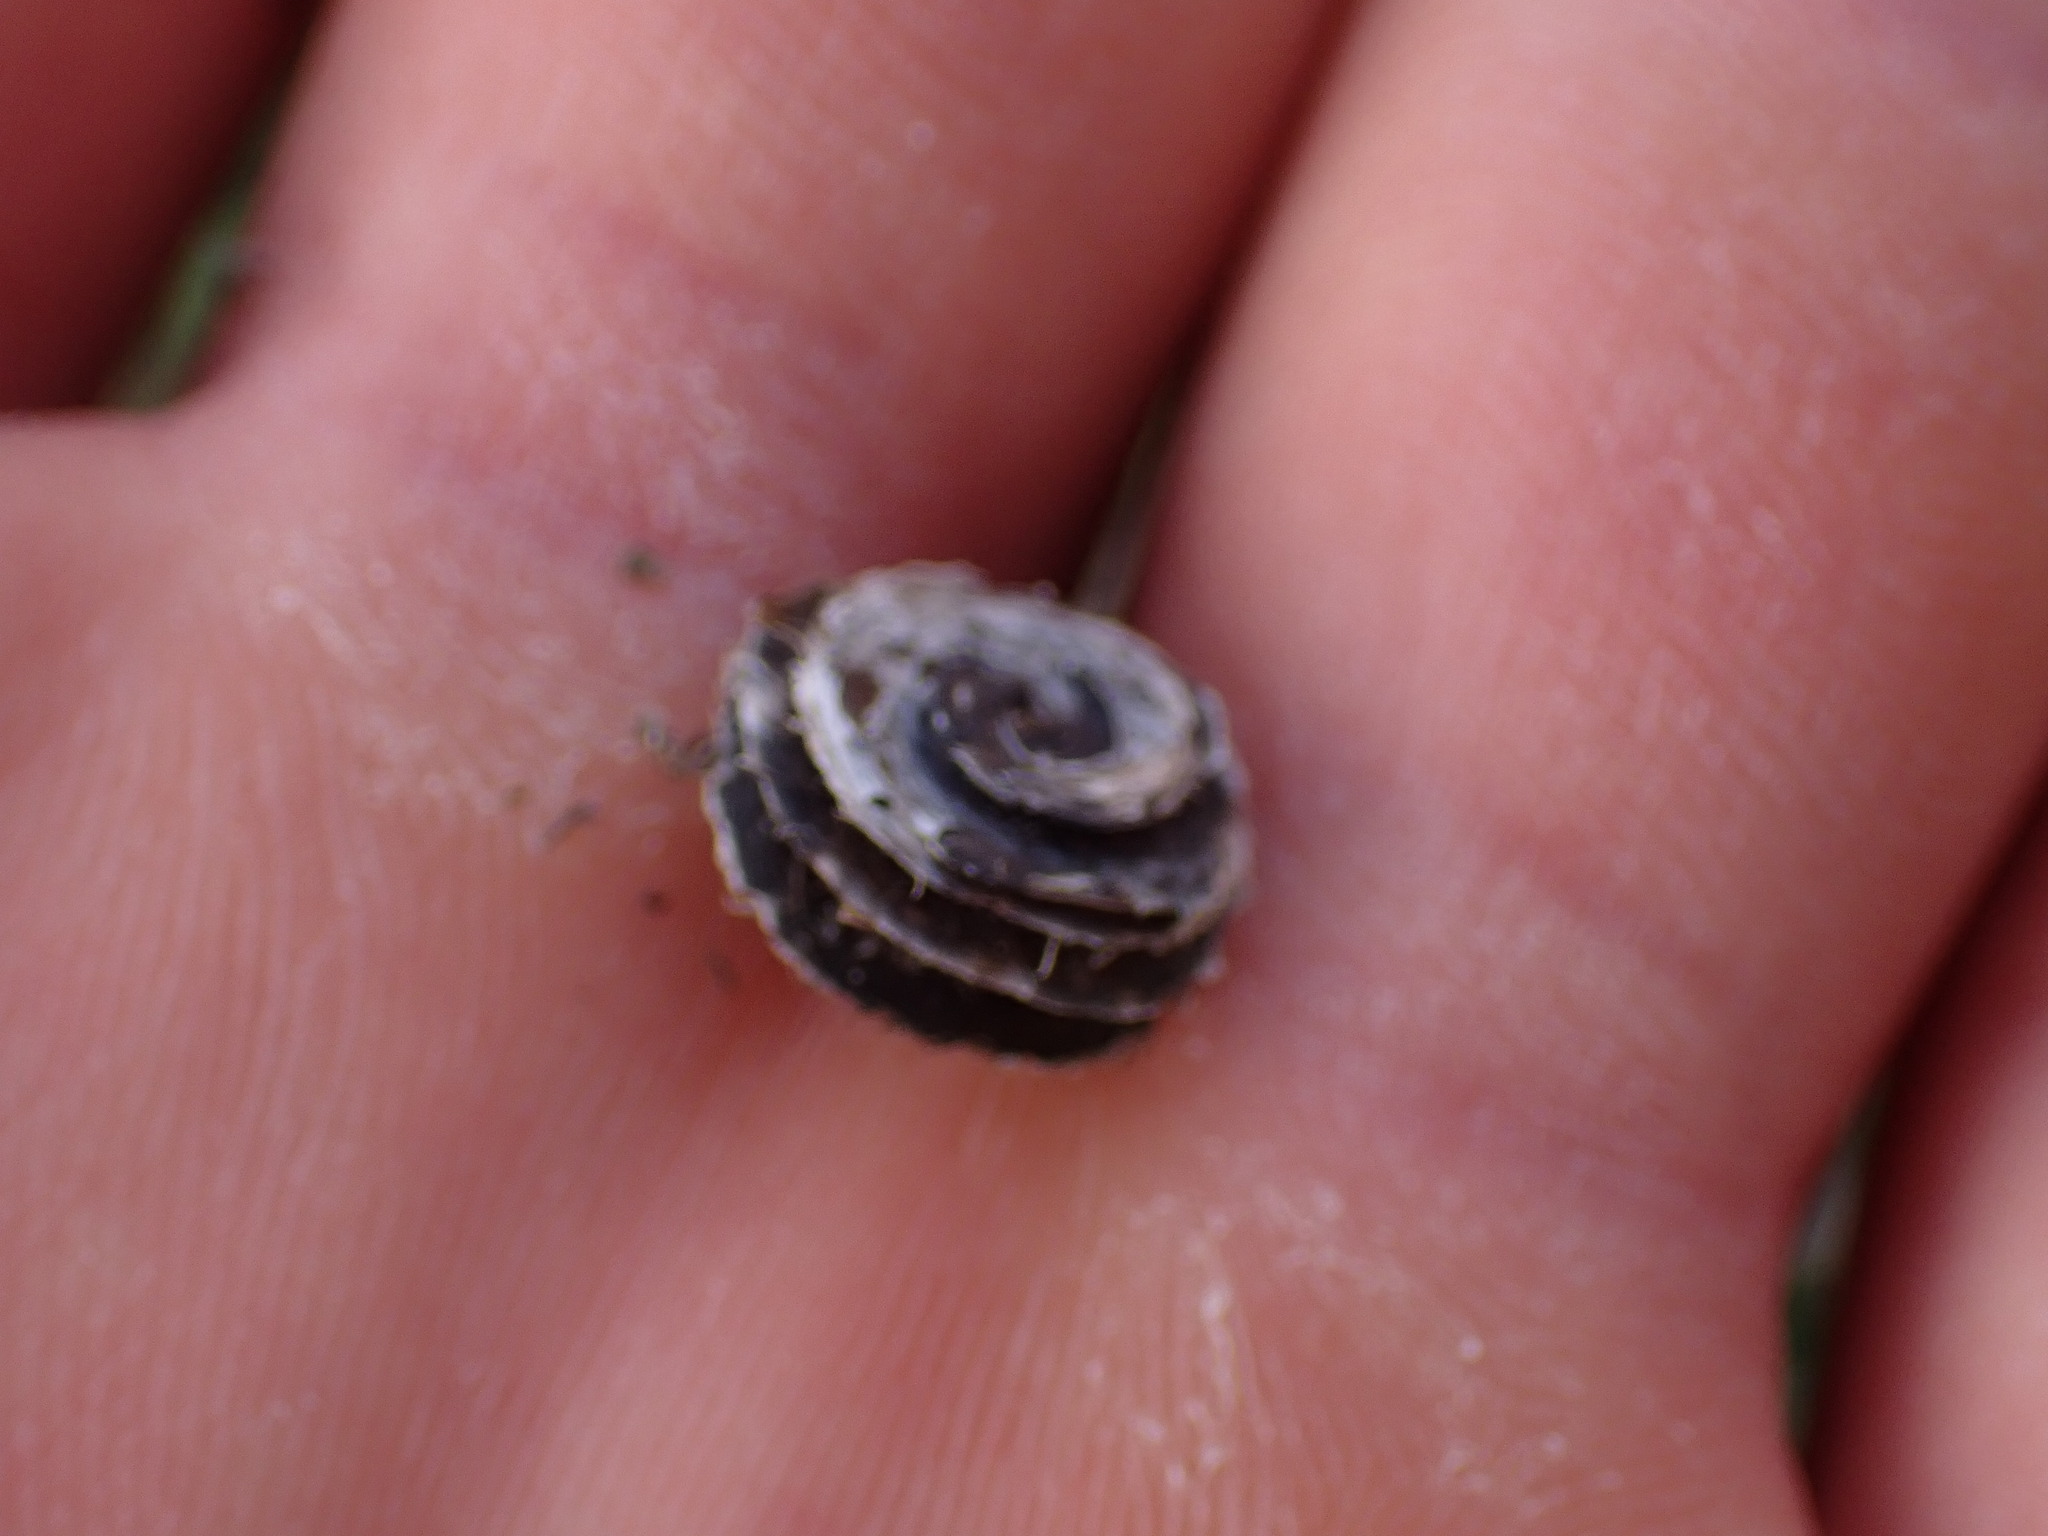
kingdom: Plantae
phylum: Tracheophyta
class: Magnoliopsida
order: Fabales
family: Fabaceae
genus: Medicago
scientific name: Medicago orbicularis
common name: Button medick
